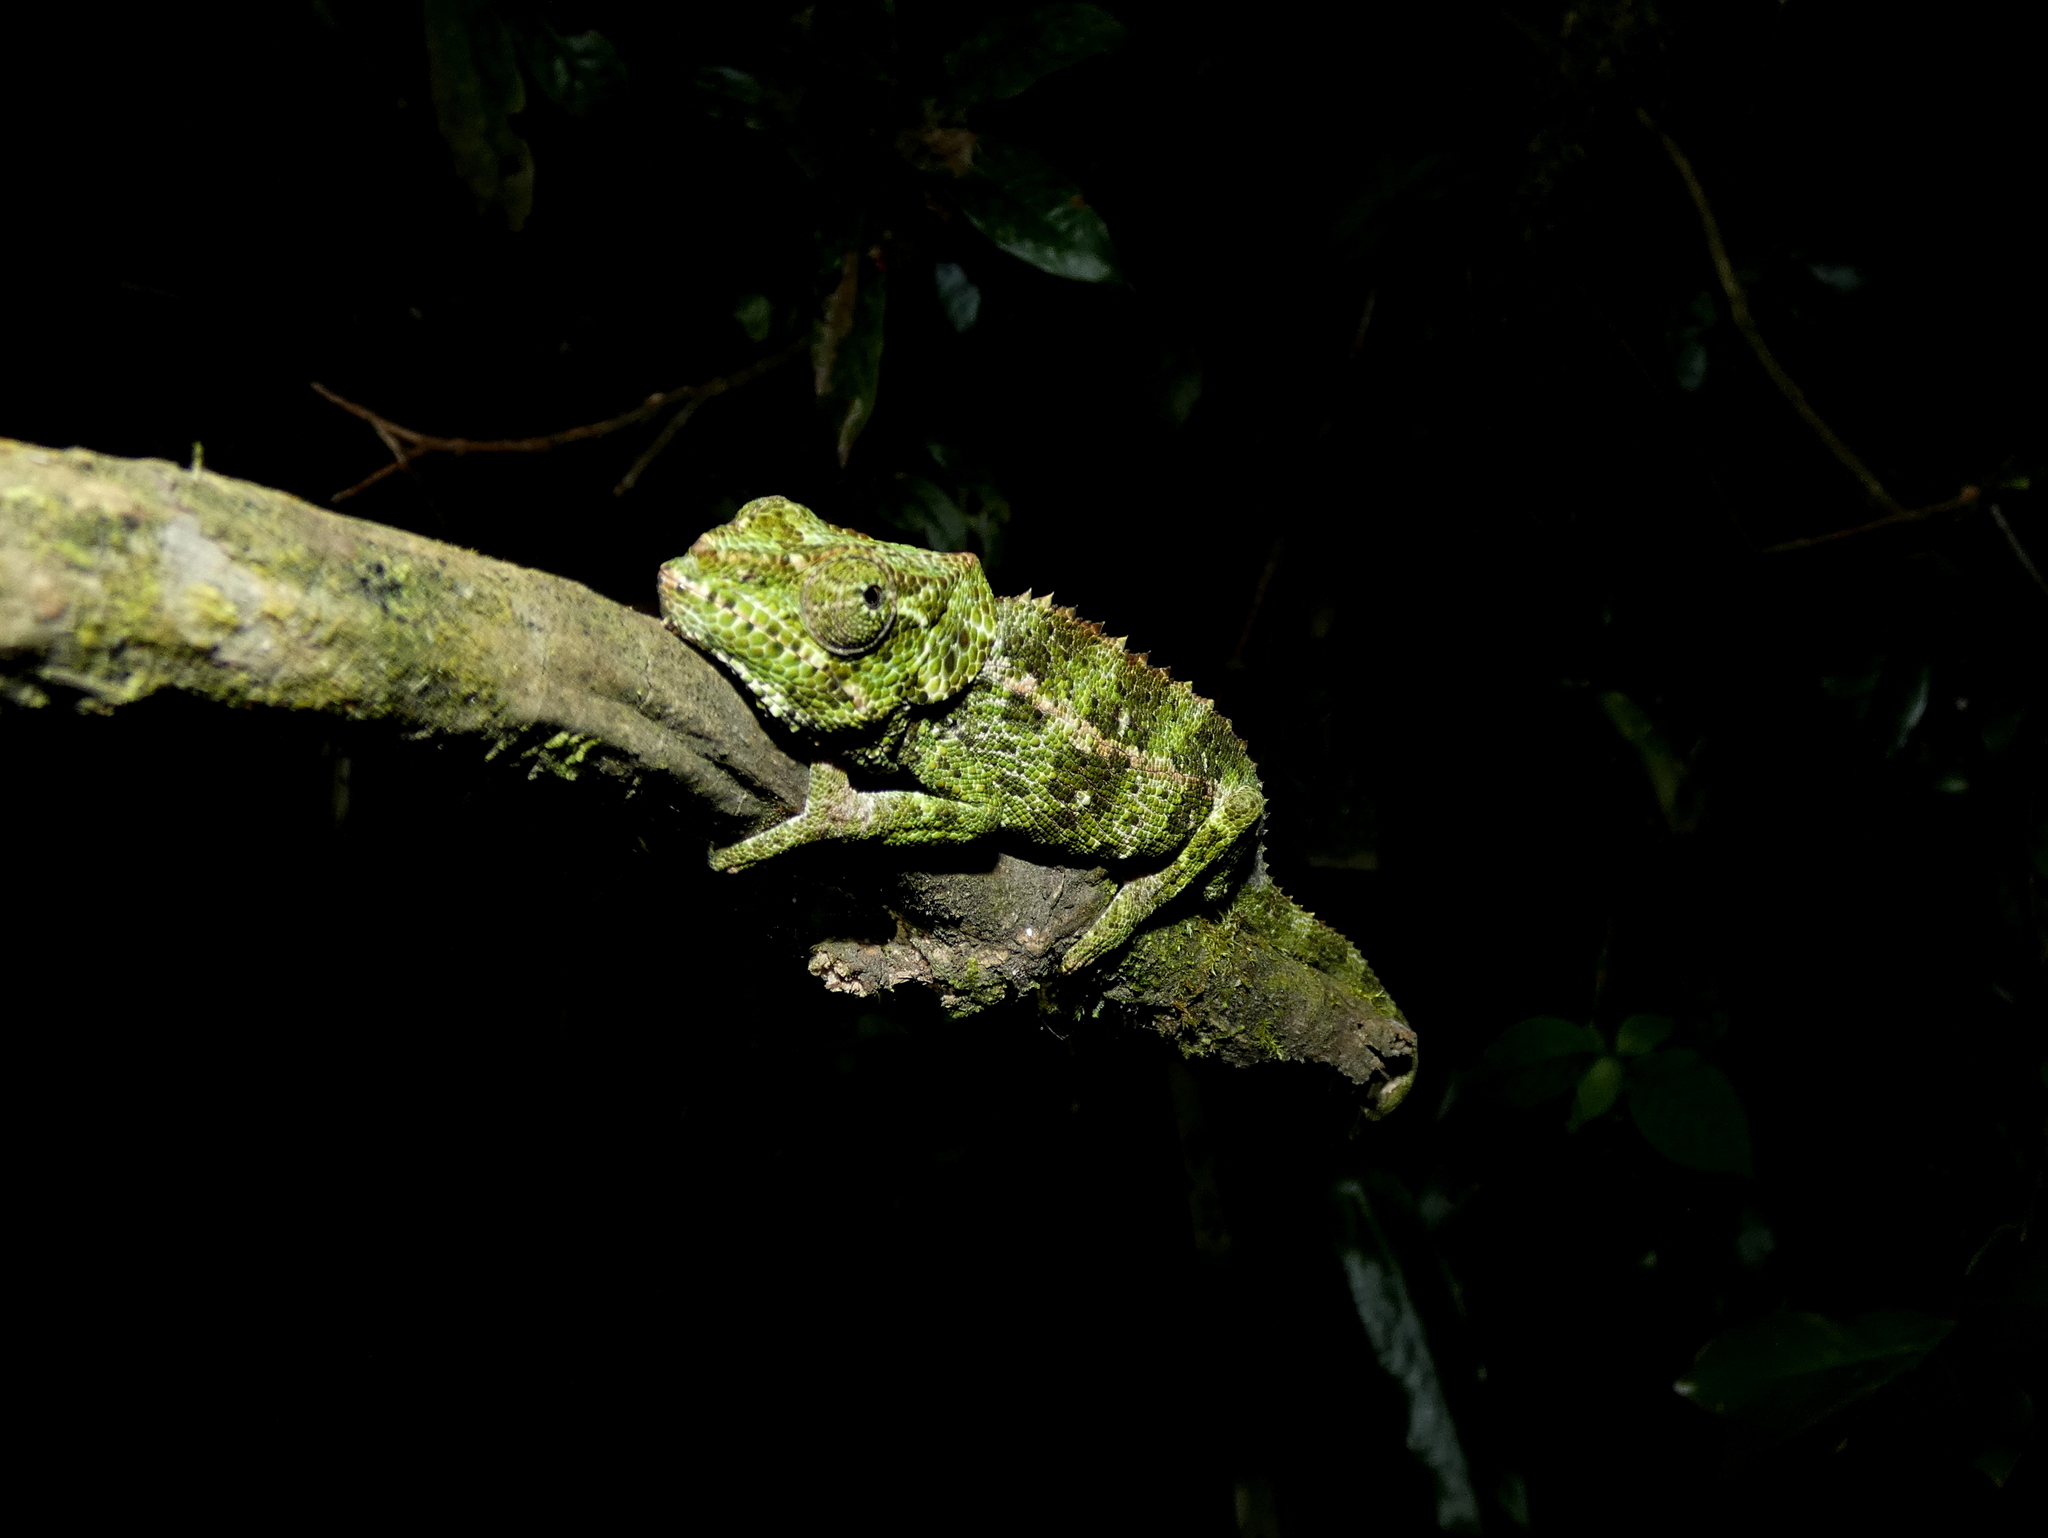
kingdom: Animalia
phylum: Chordata
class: Squamata
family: Chamaeleonidae
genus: Calumma
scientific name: Calumma crypticum
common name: Cryptic chameleon
